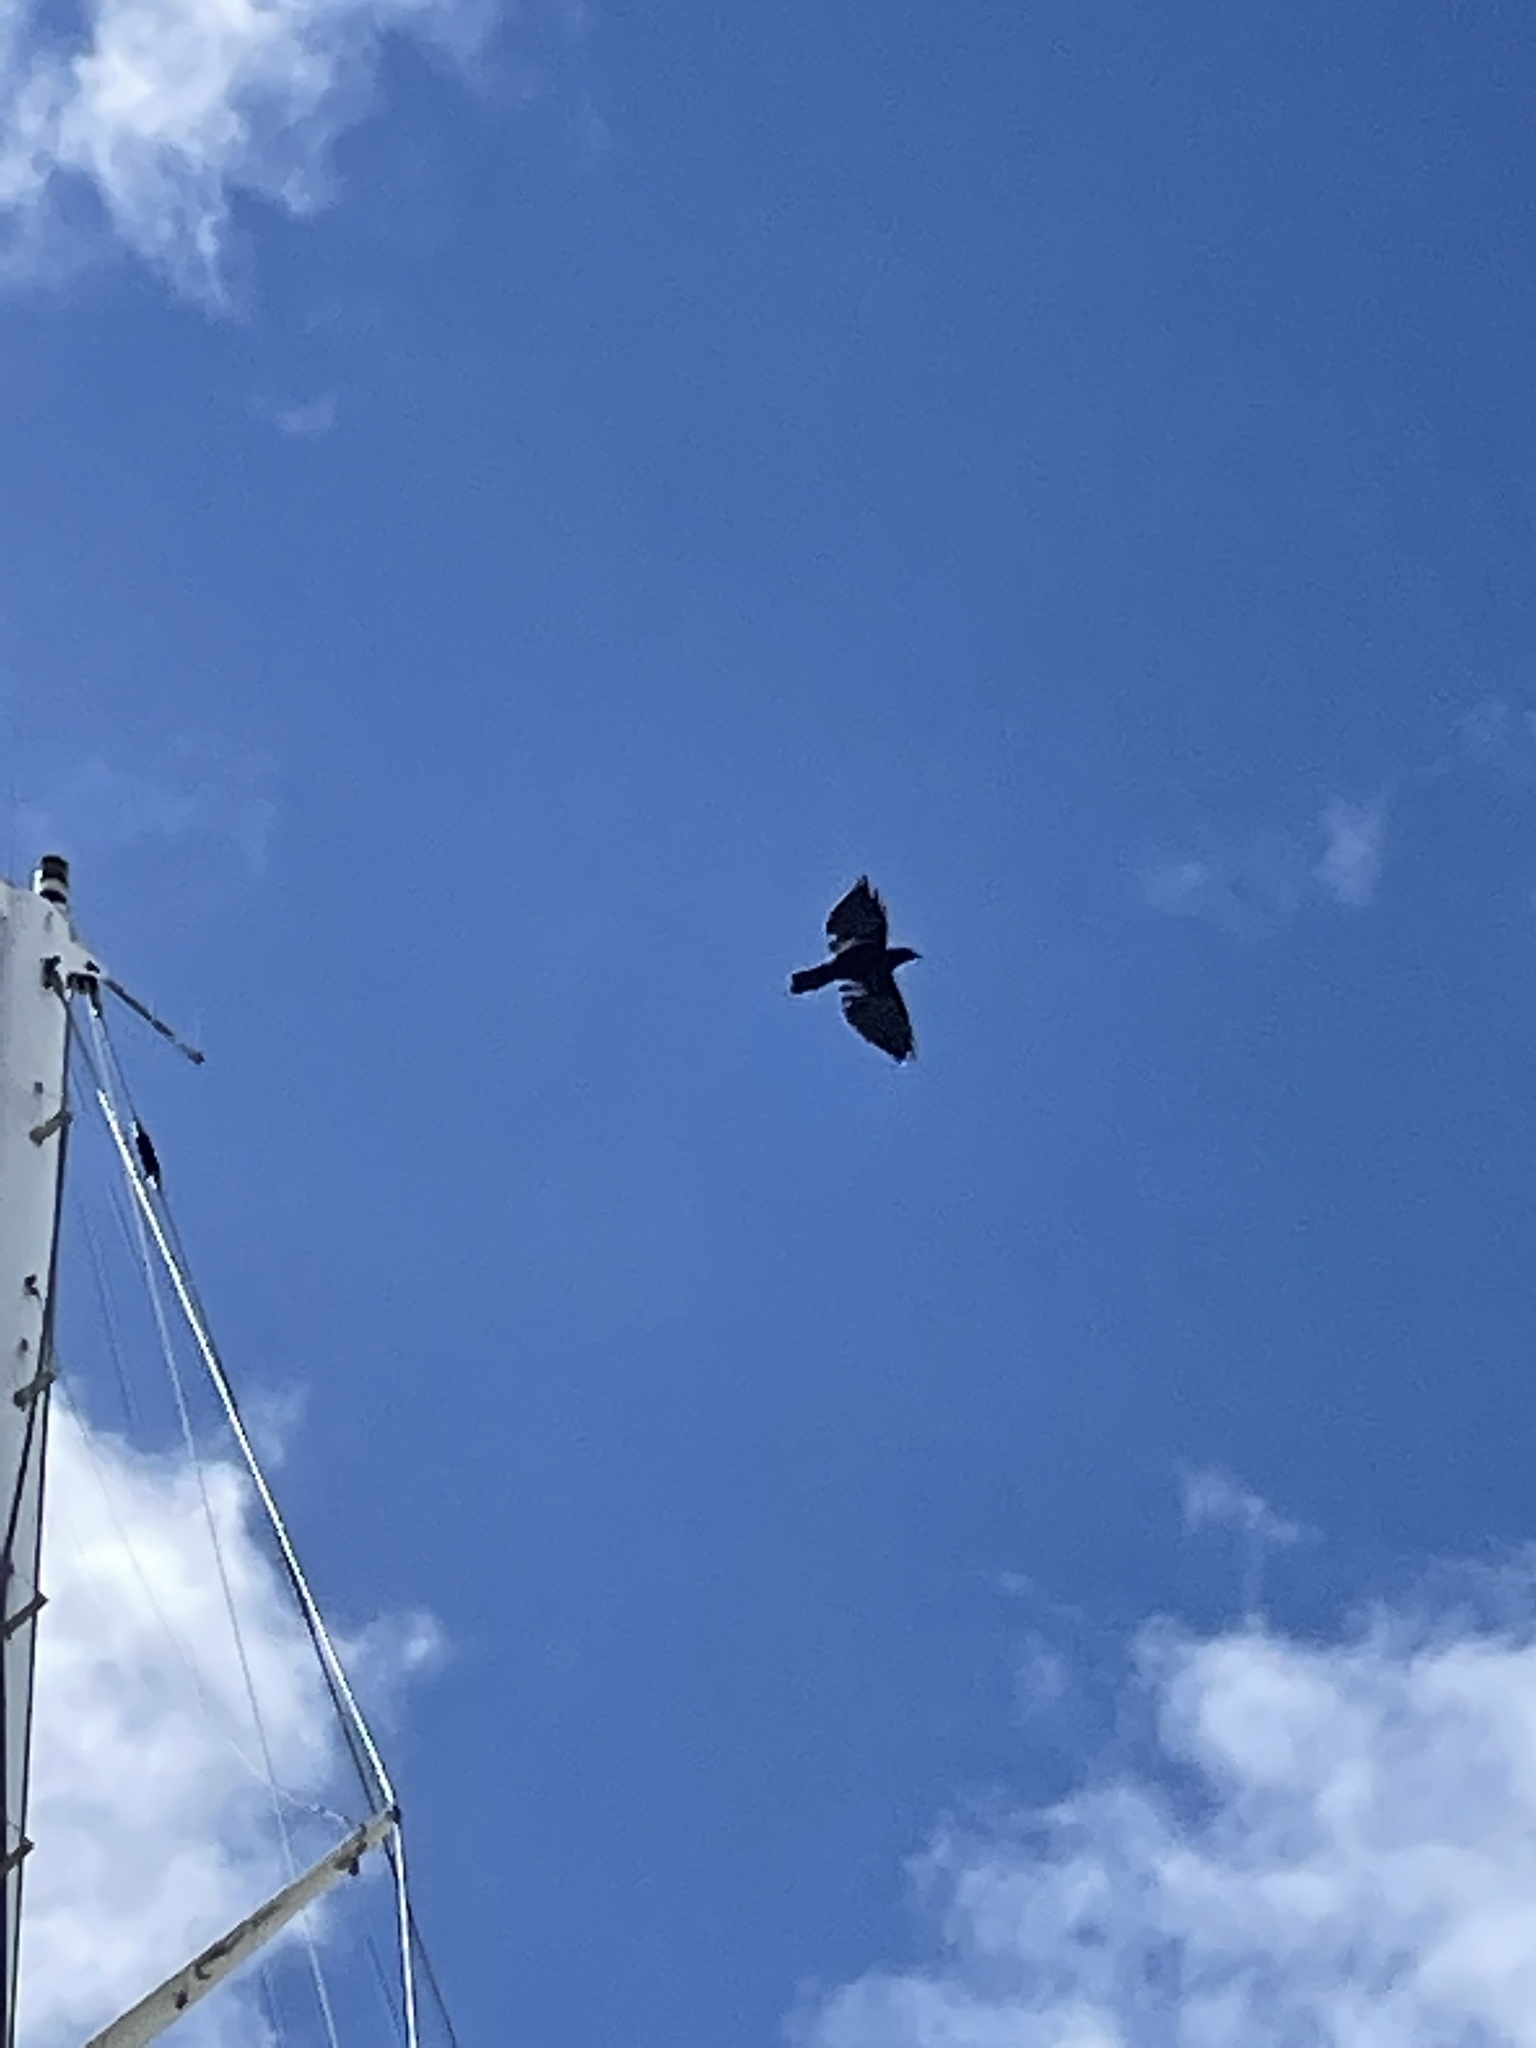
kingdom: Animalia
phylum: Chordata
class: Aves
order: Passeriformes
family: Corvidae
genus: Corvus
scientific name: Corvus ossifragus
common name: Fish crow
